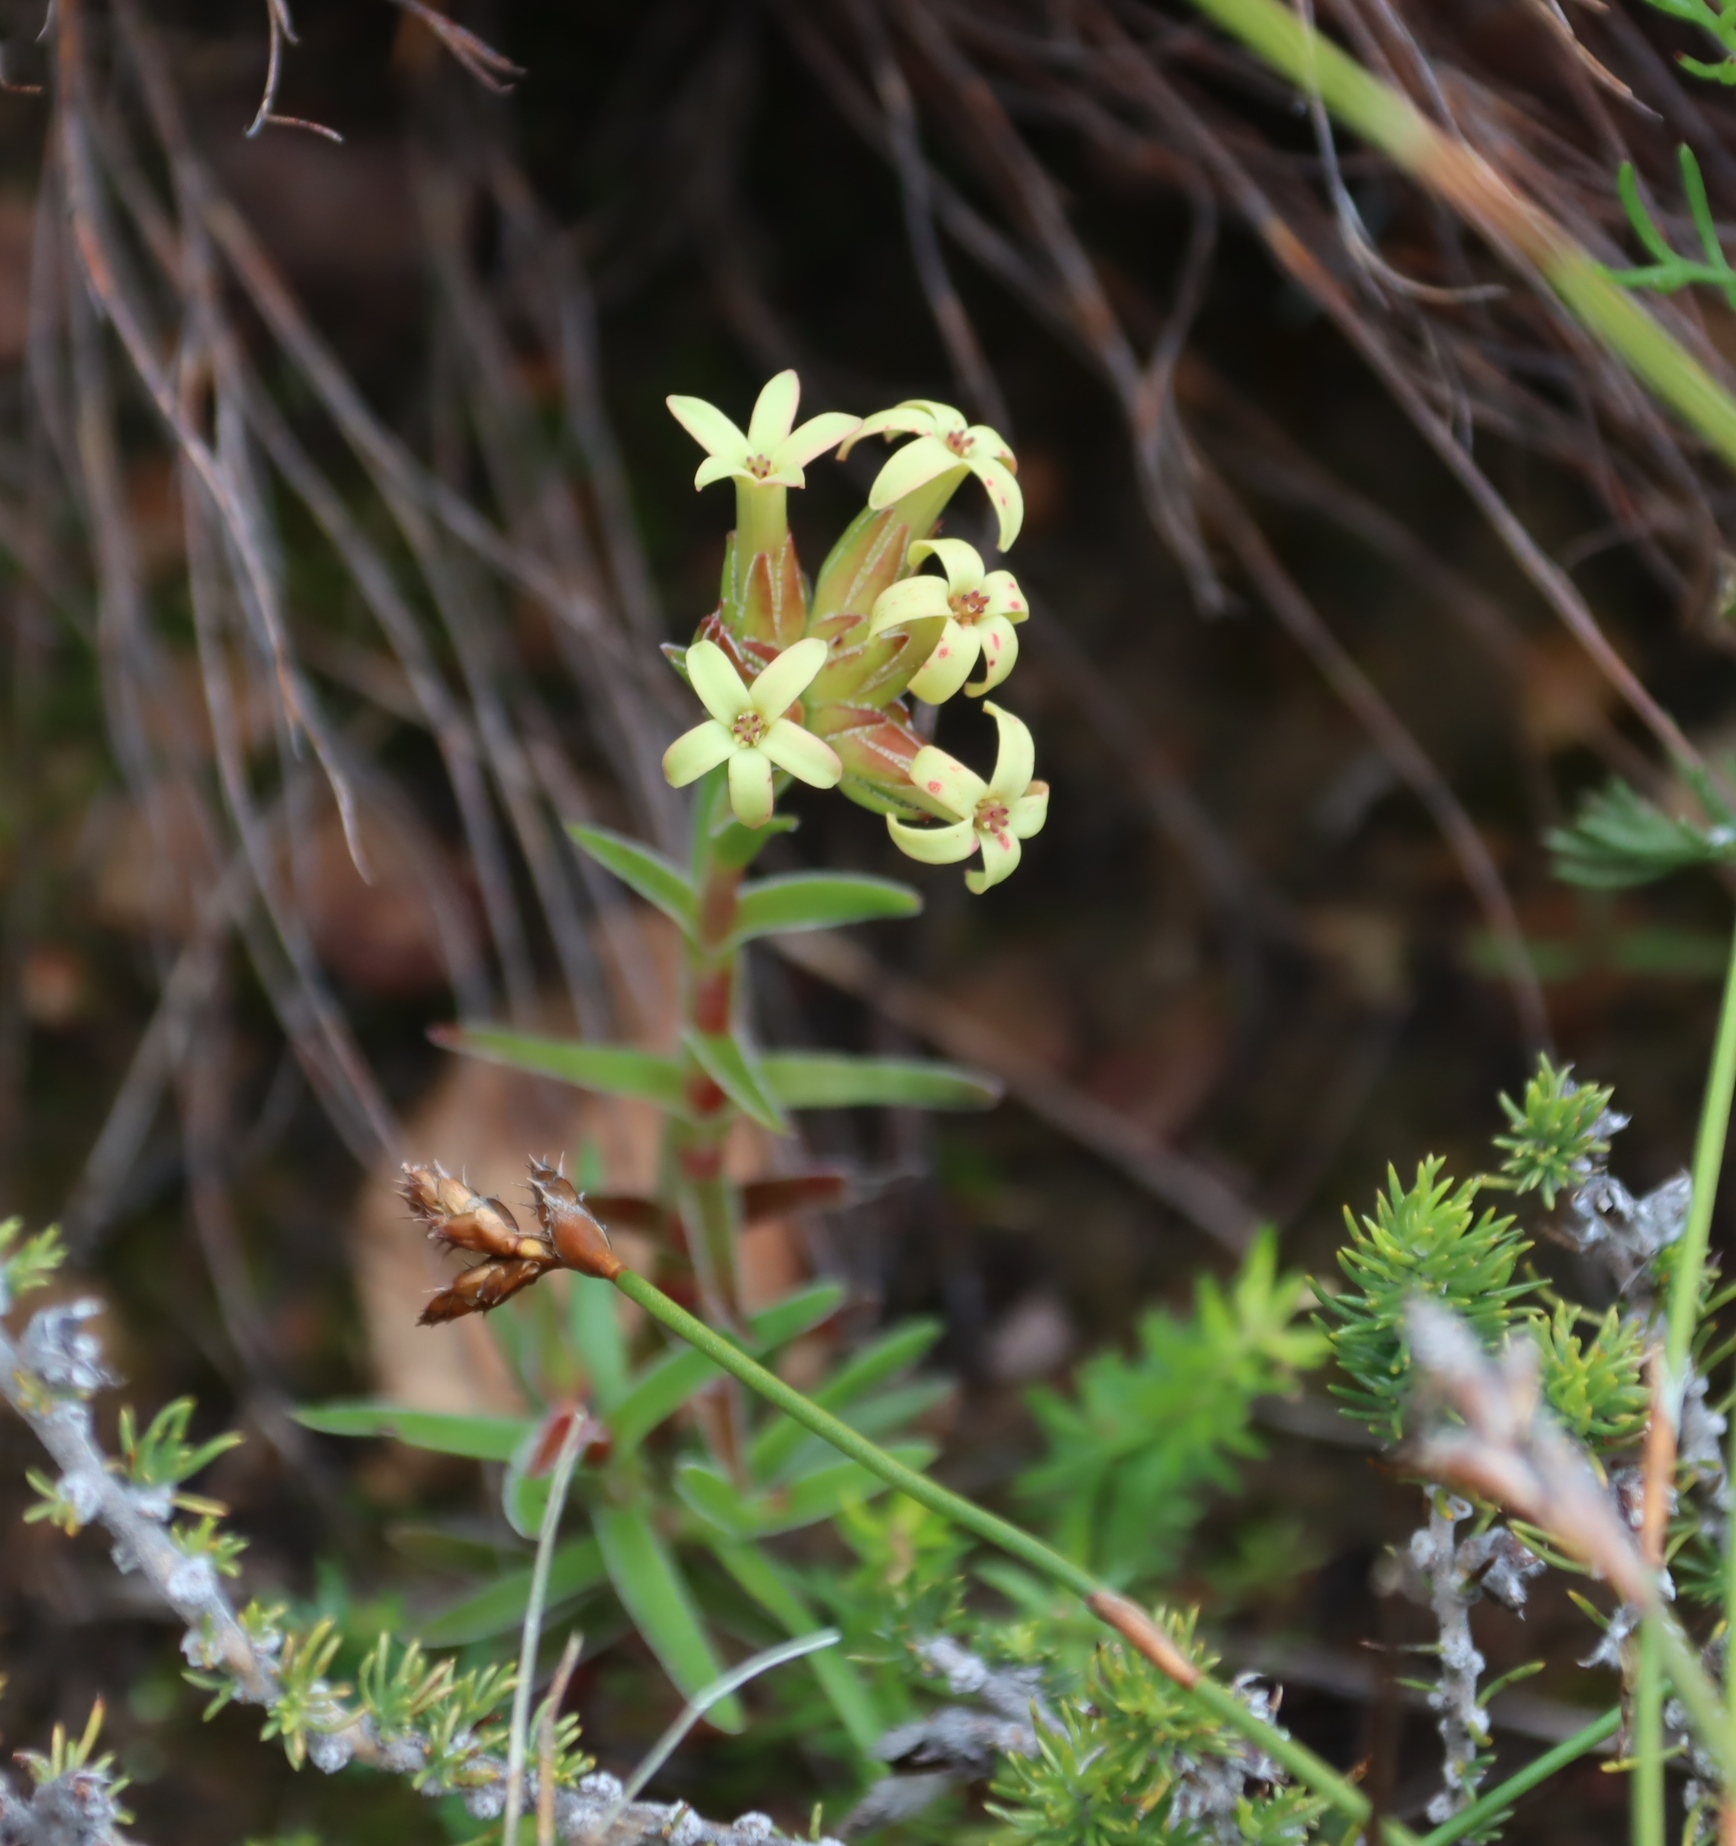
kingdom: Plantae
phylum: Tracheophyta
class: Magnoliopsida
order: Saxifragales
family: Crassulaceae
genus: Crassula
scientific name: Crassula fascicularis
